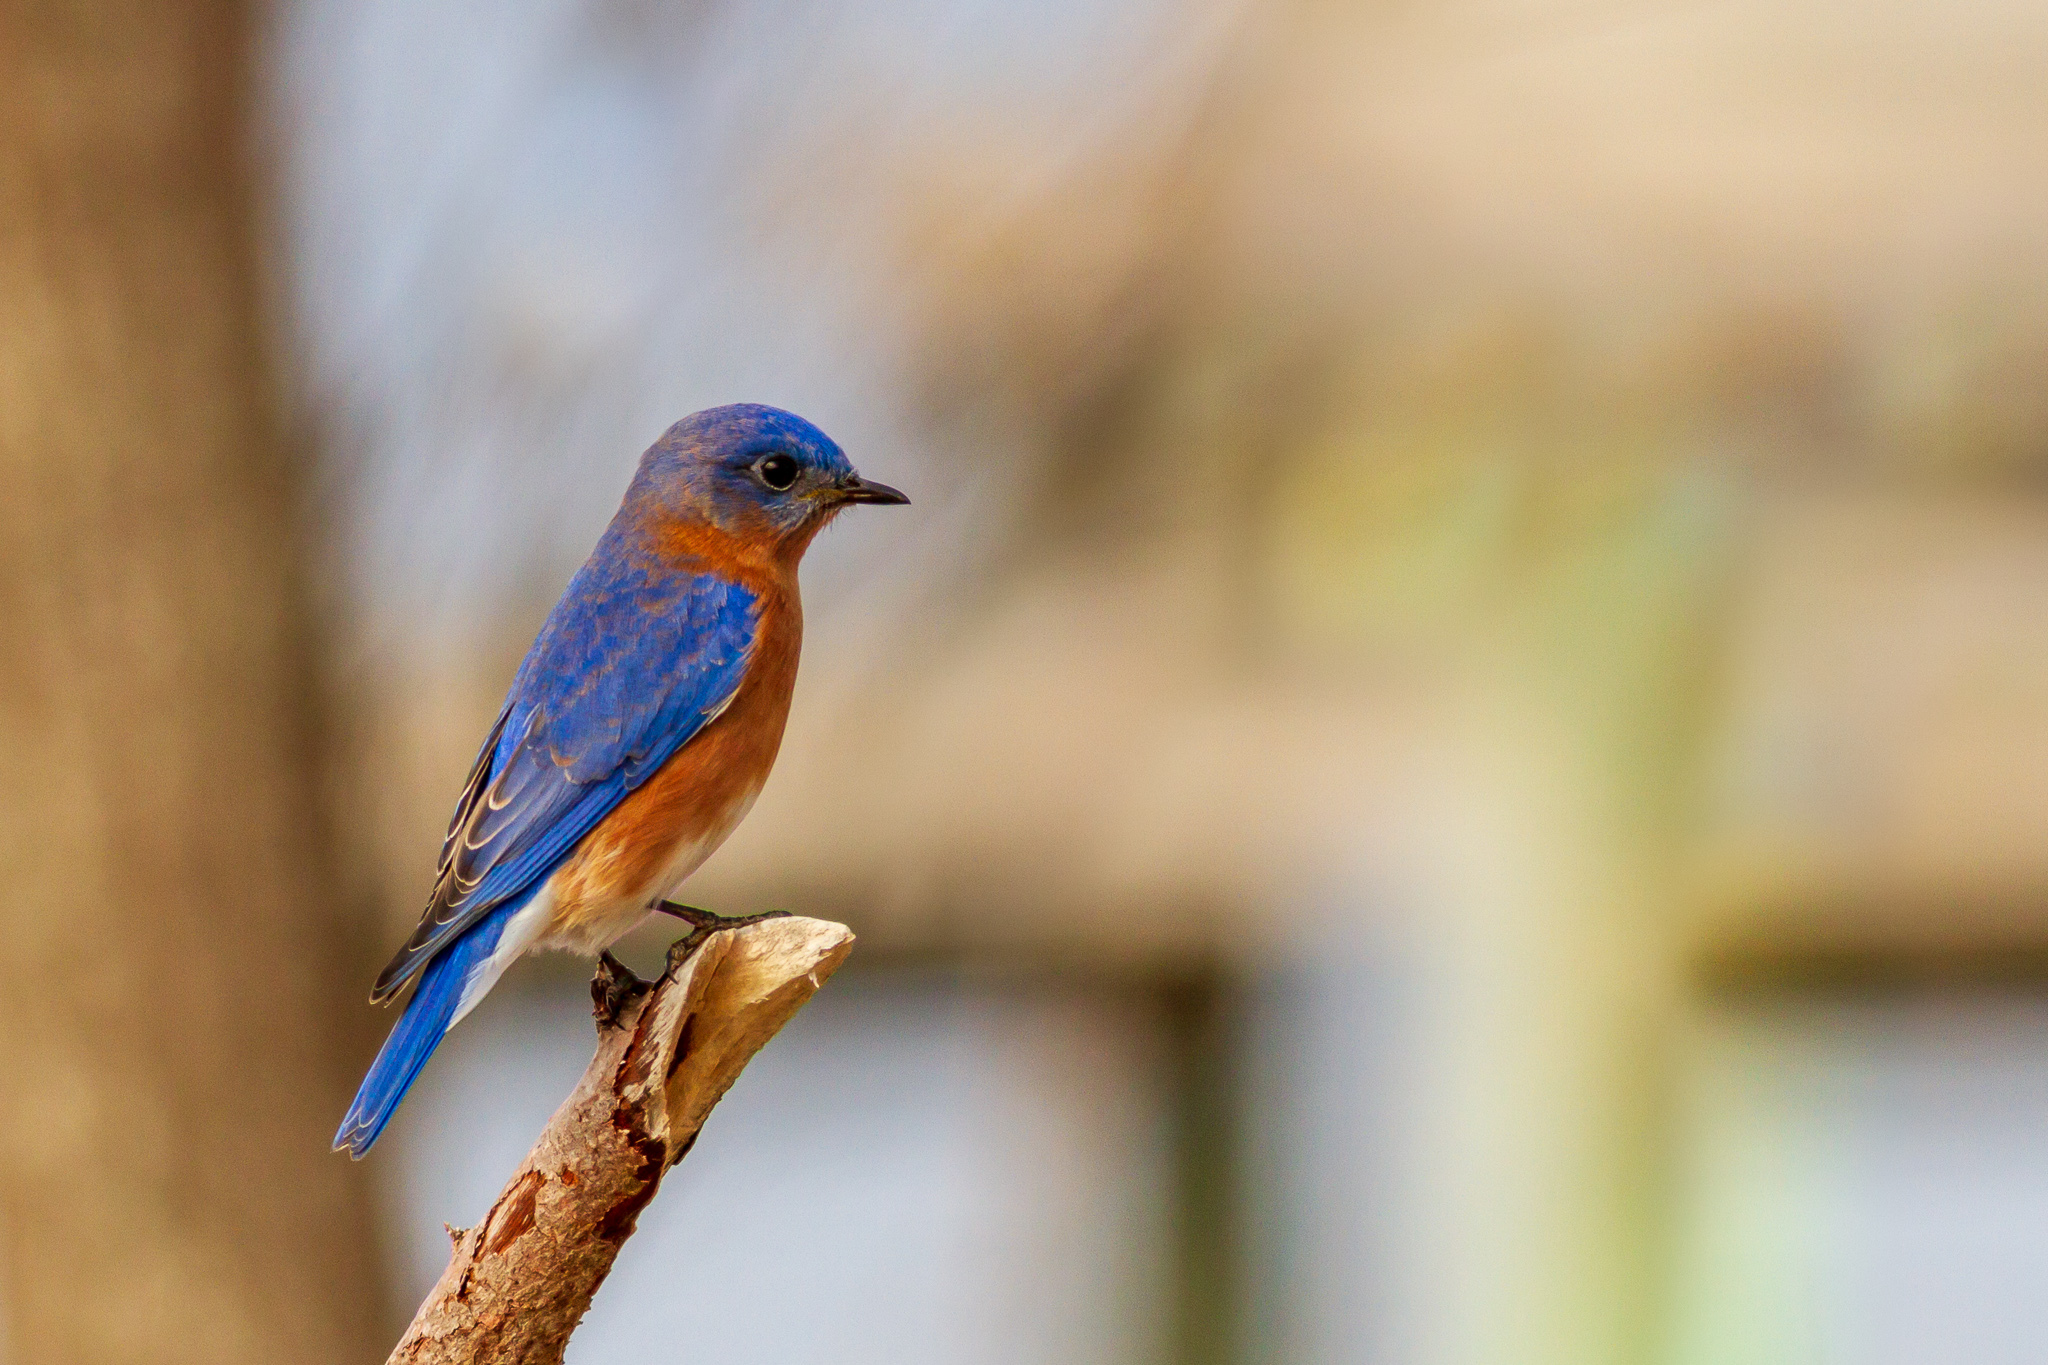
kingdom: Animalia
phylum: Chordata
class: Aves
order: Passeriformes
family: Turdidae
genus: Sialia
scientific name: Sialia sialis
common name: Eastern bluebird
